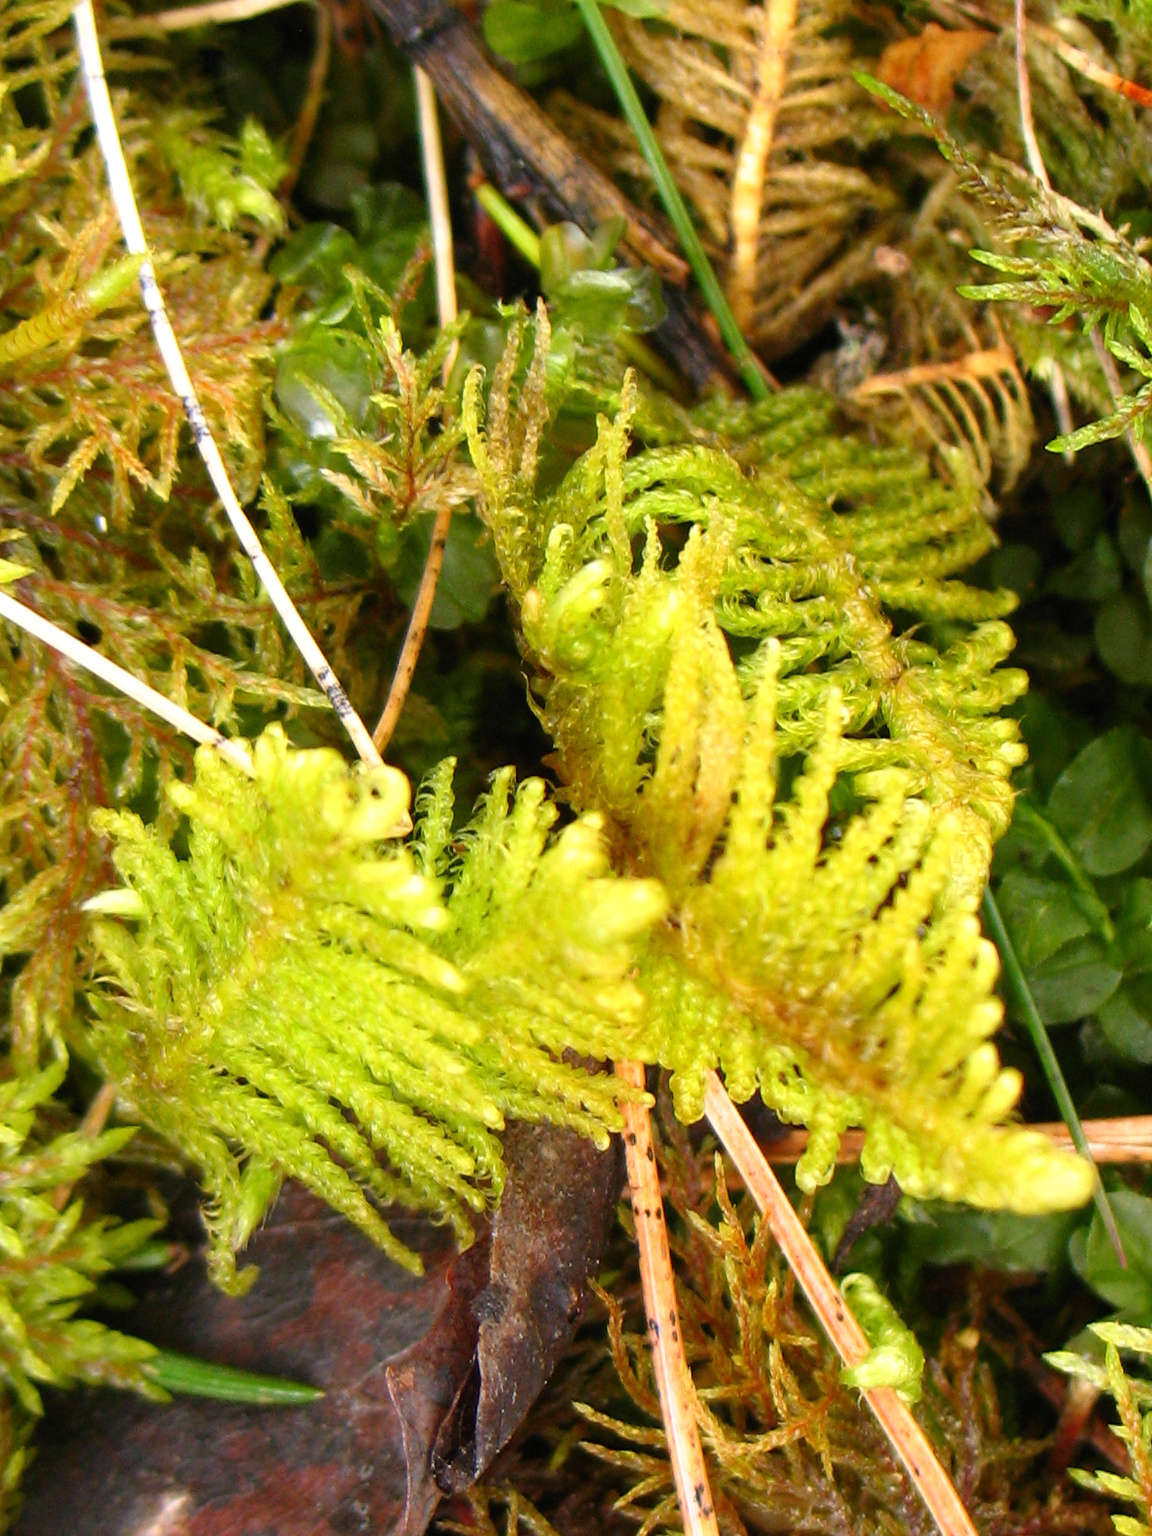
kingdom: Plantae
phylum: Bryophyta
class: Bryopsida
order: Hypnales
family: Pylaisiaceae
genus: Ptilium
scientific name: Ptilium crista-castrensis
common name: Knight's plume moss
